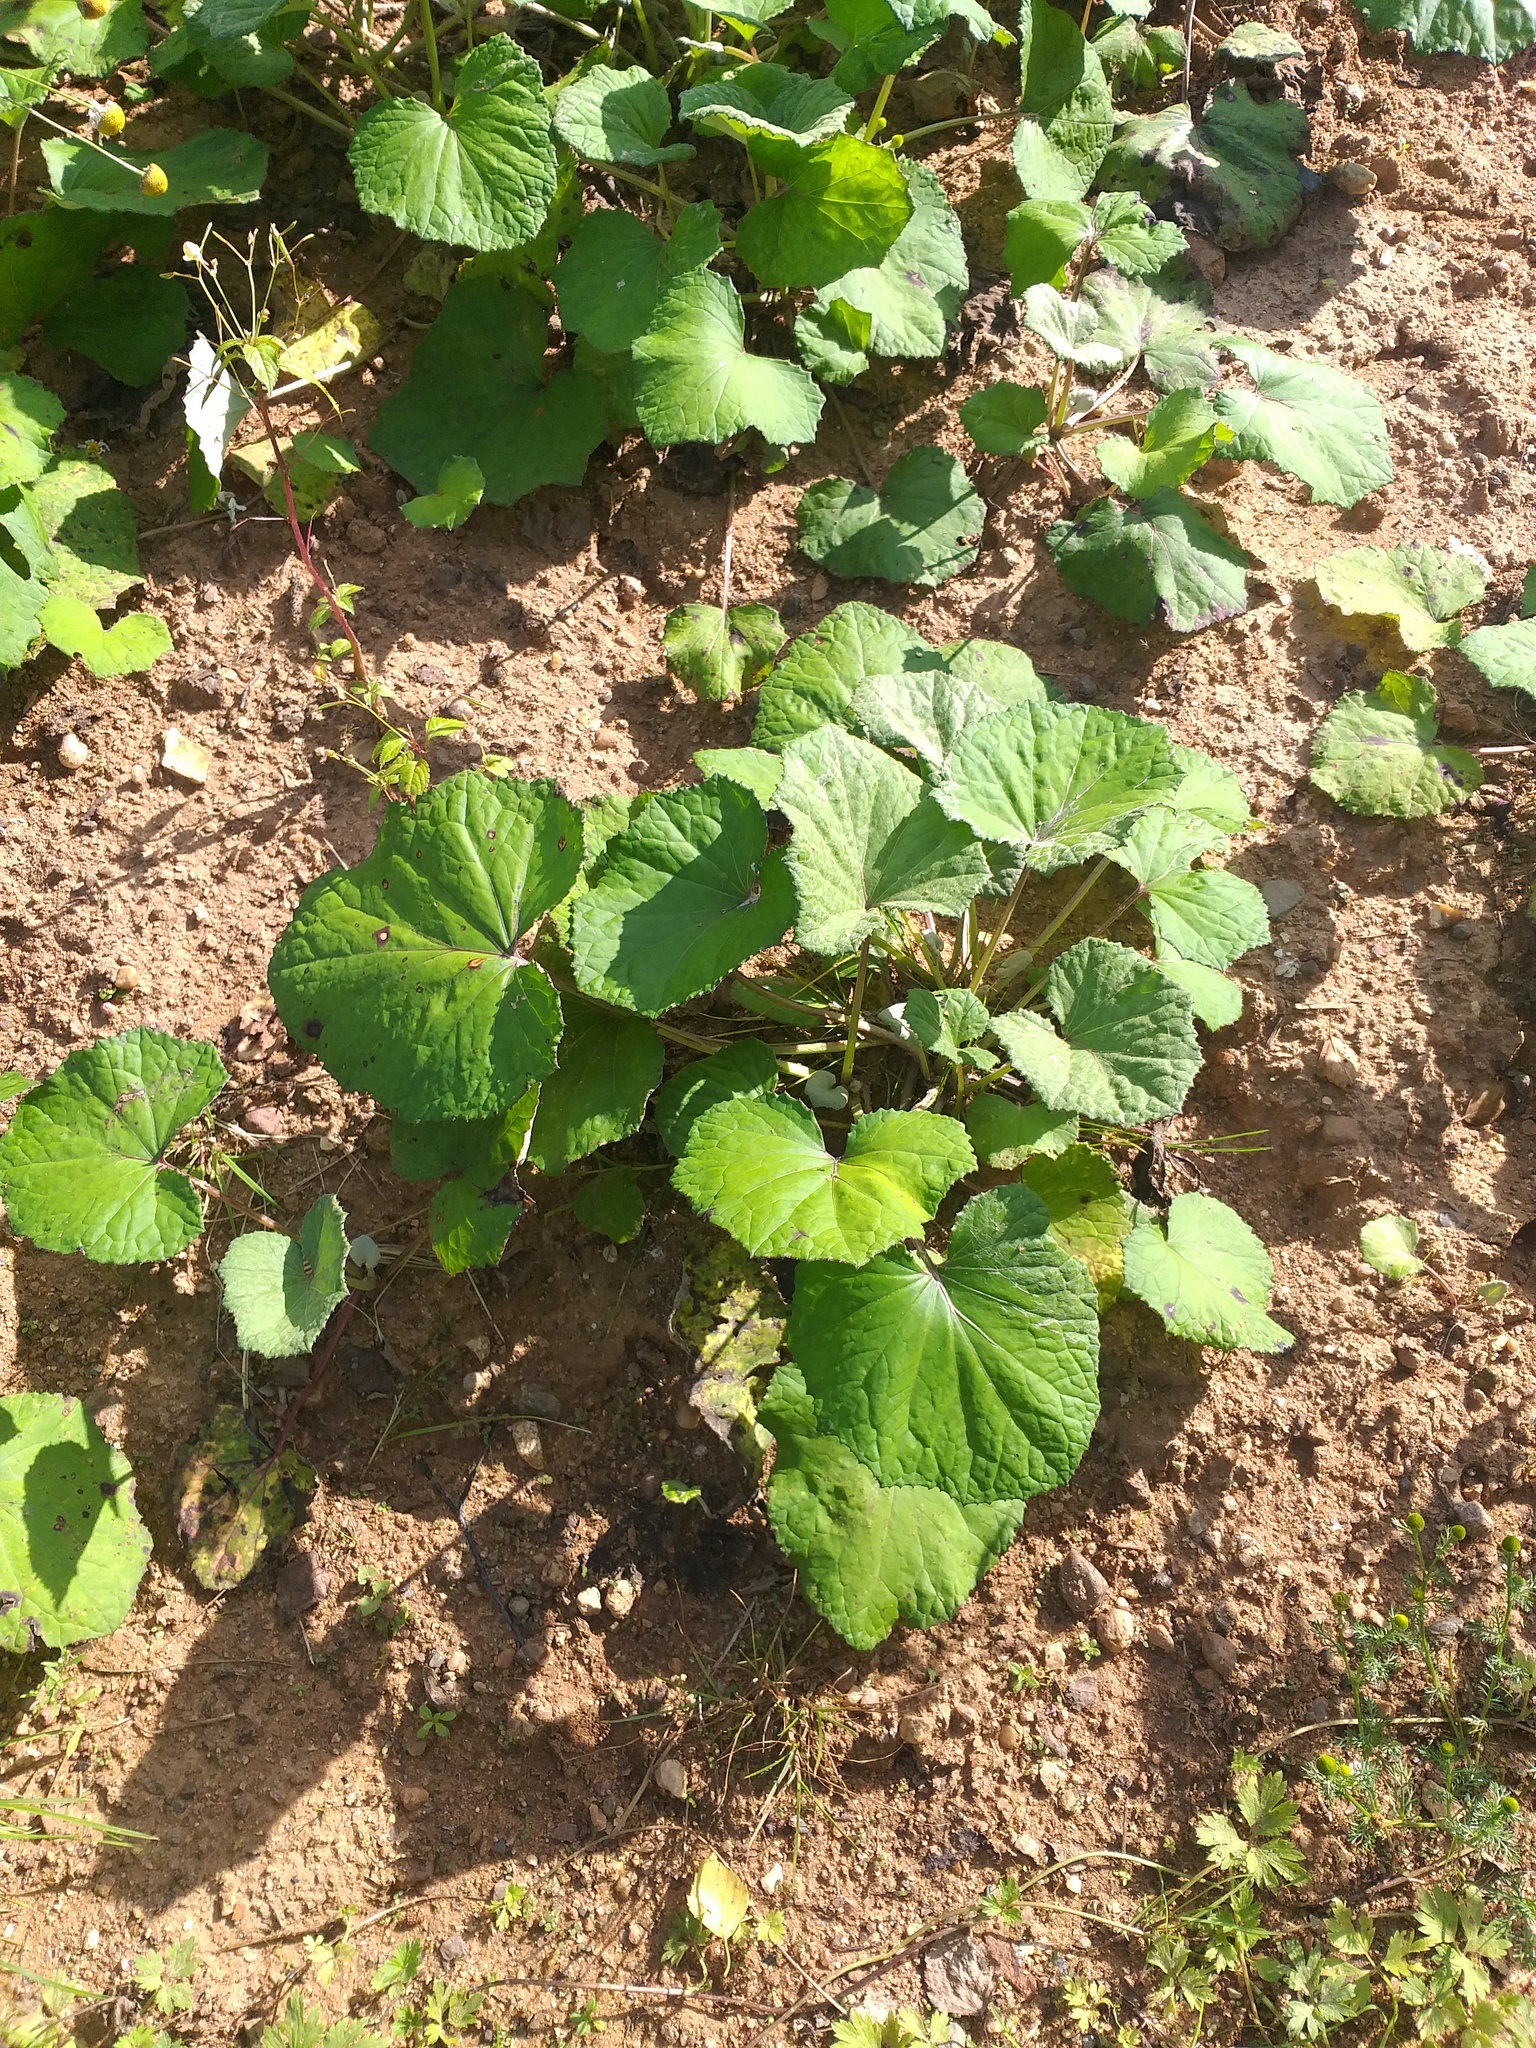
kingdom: Plantae
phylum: Tracheophyta
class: Magnoliopsida
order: Asterales
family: Asteraceae
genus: Tussilago
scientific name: Tussilago farfara
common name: Coltsfoot
